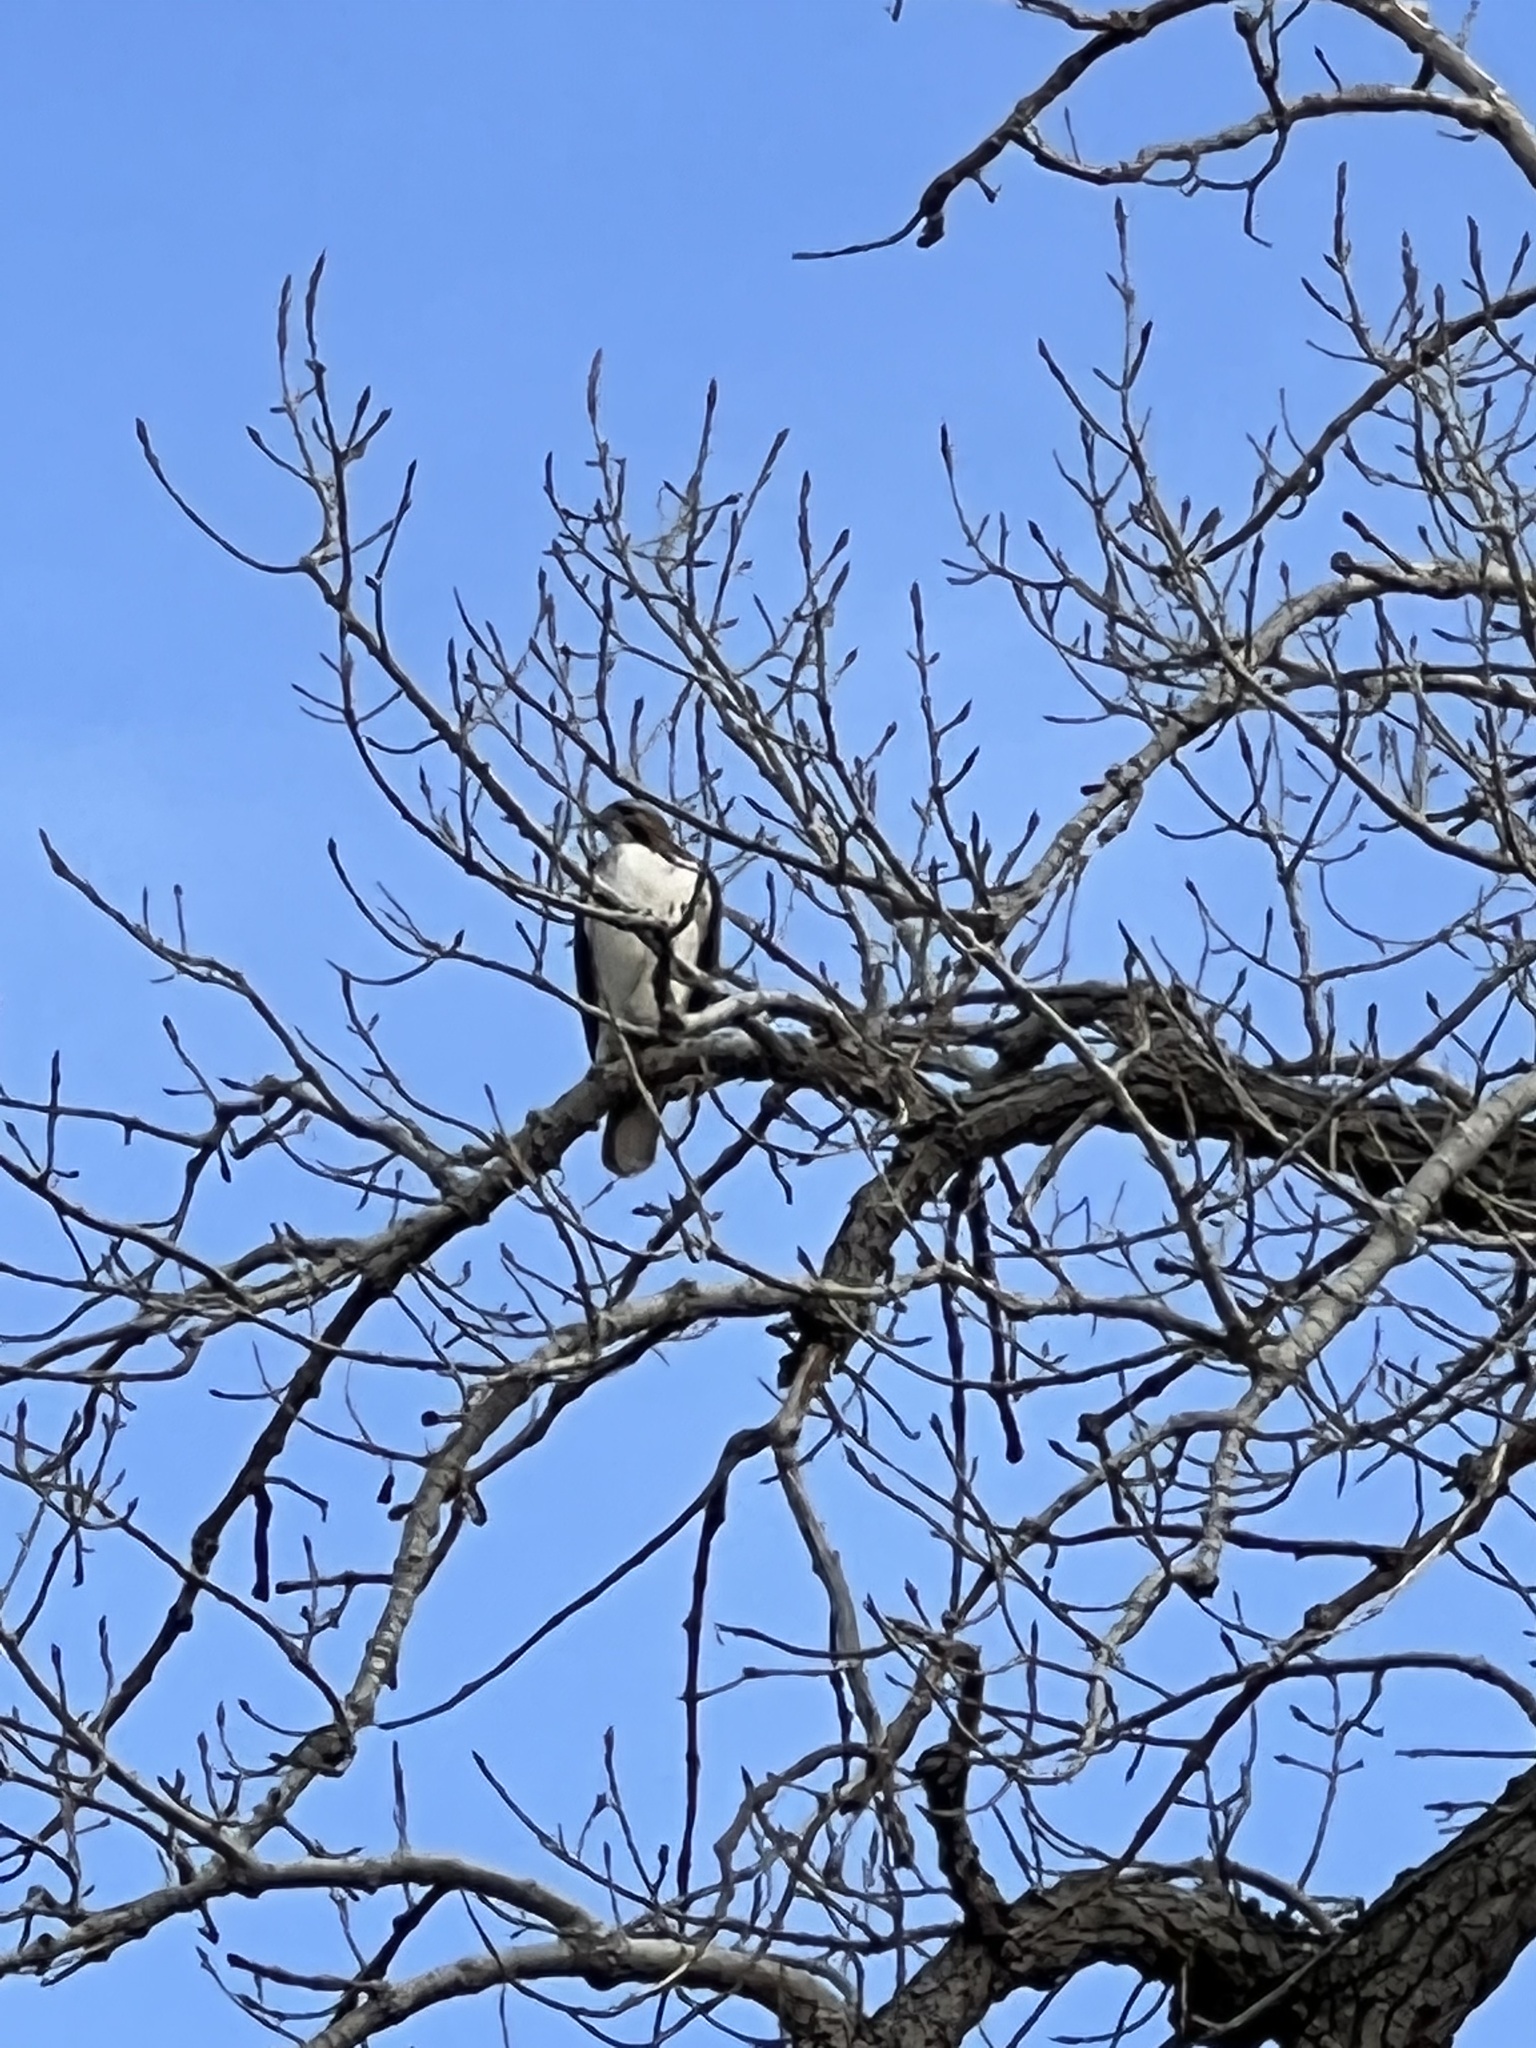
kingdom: Animalia
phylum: Chordata
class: Aves
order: Accipitriformes
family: Accipitridae
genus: Buteo
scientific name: Buteo jamaicensis
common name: Red-tailed hawk
